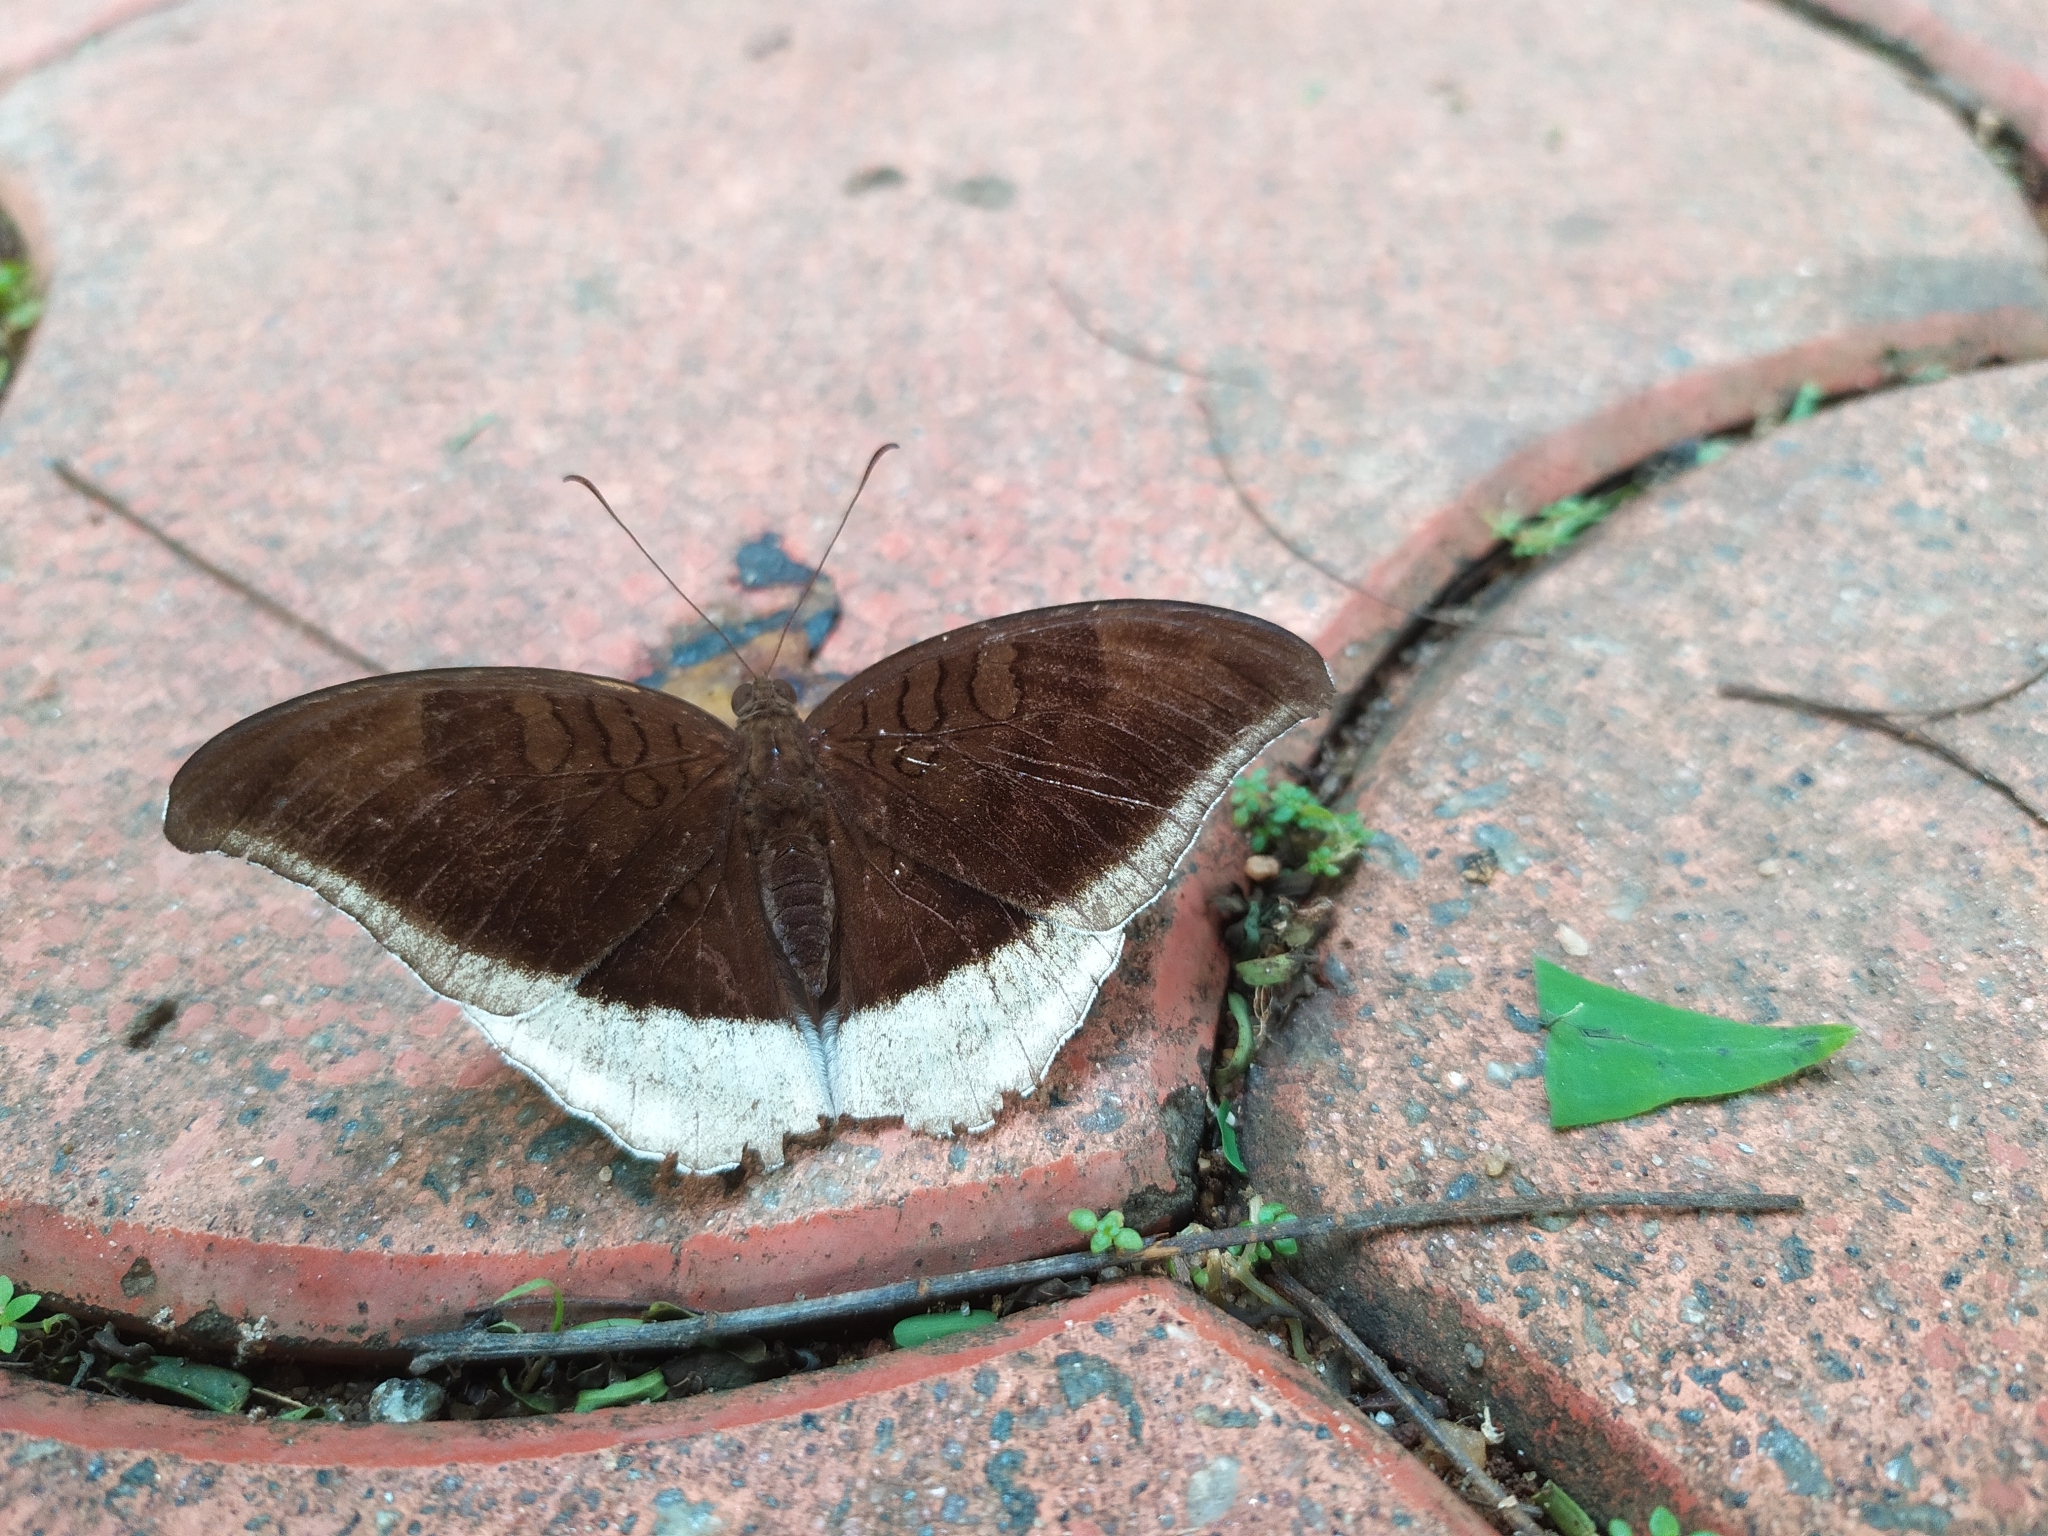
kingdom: Animalia
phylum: Arthropoda
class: Insecta
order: Lepidoptera
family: Nymphalidae
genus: Tanaecia
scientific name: Tanaecia lepidea
